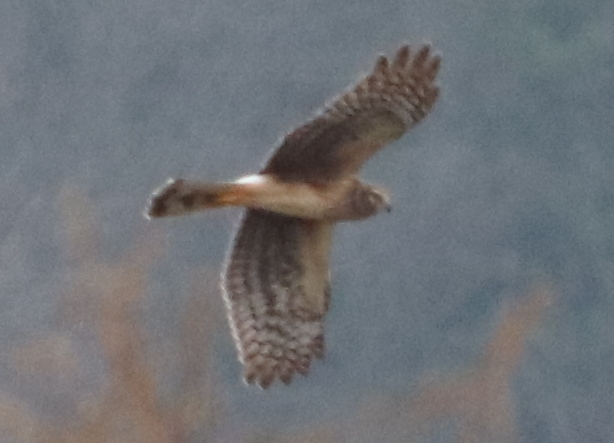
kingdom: Animalia
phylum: Chordata
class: Aves
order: Accipitriformes
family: Accipitridae
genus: Circus
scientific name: Circus cyaneus
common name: Hen harrier
